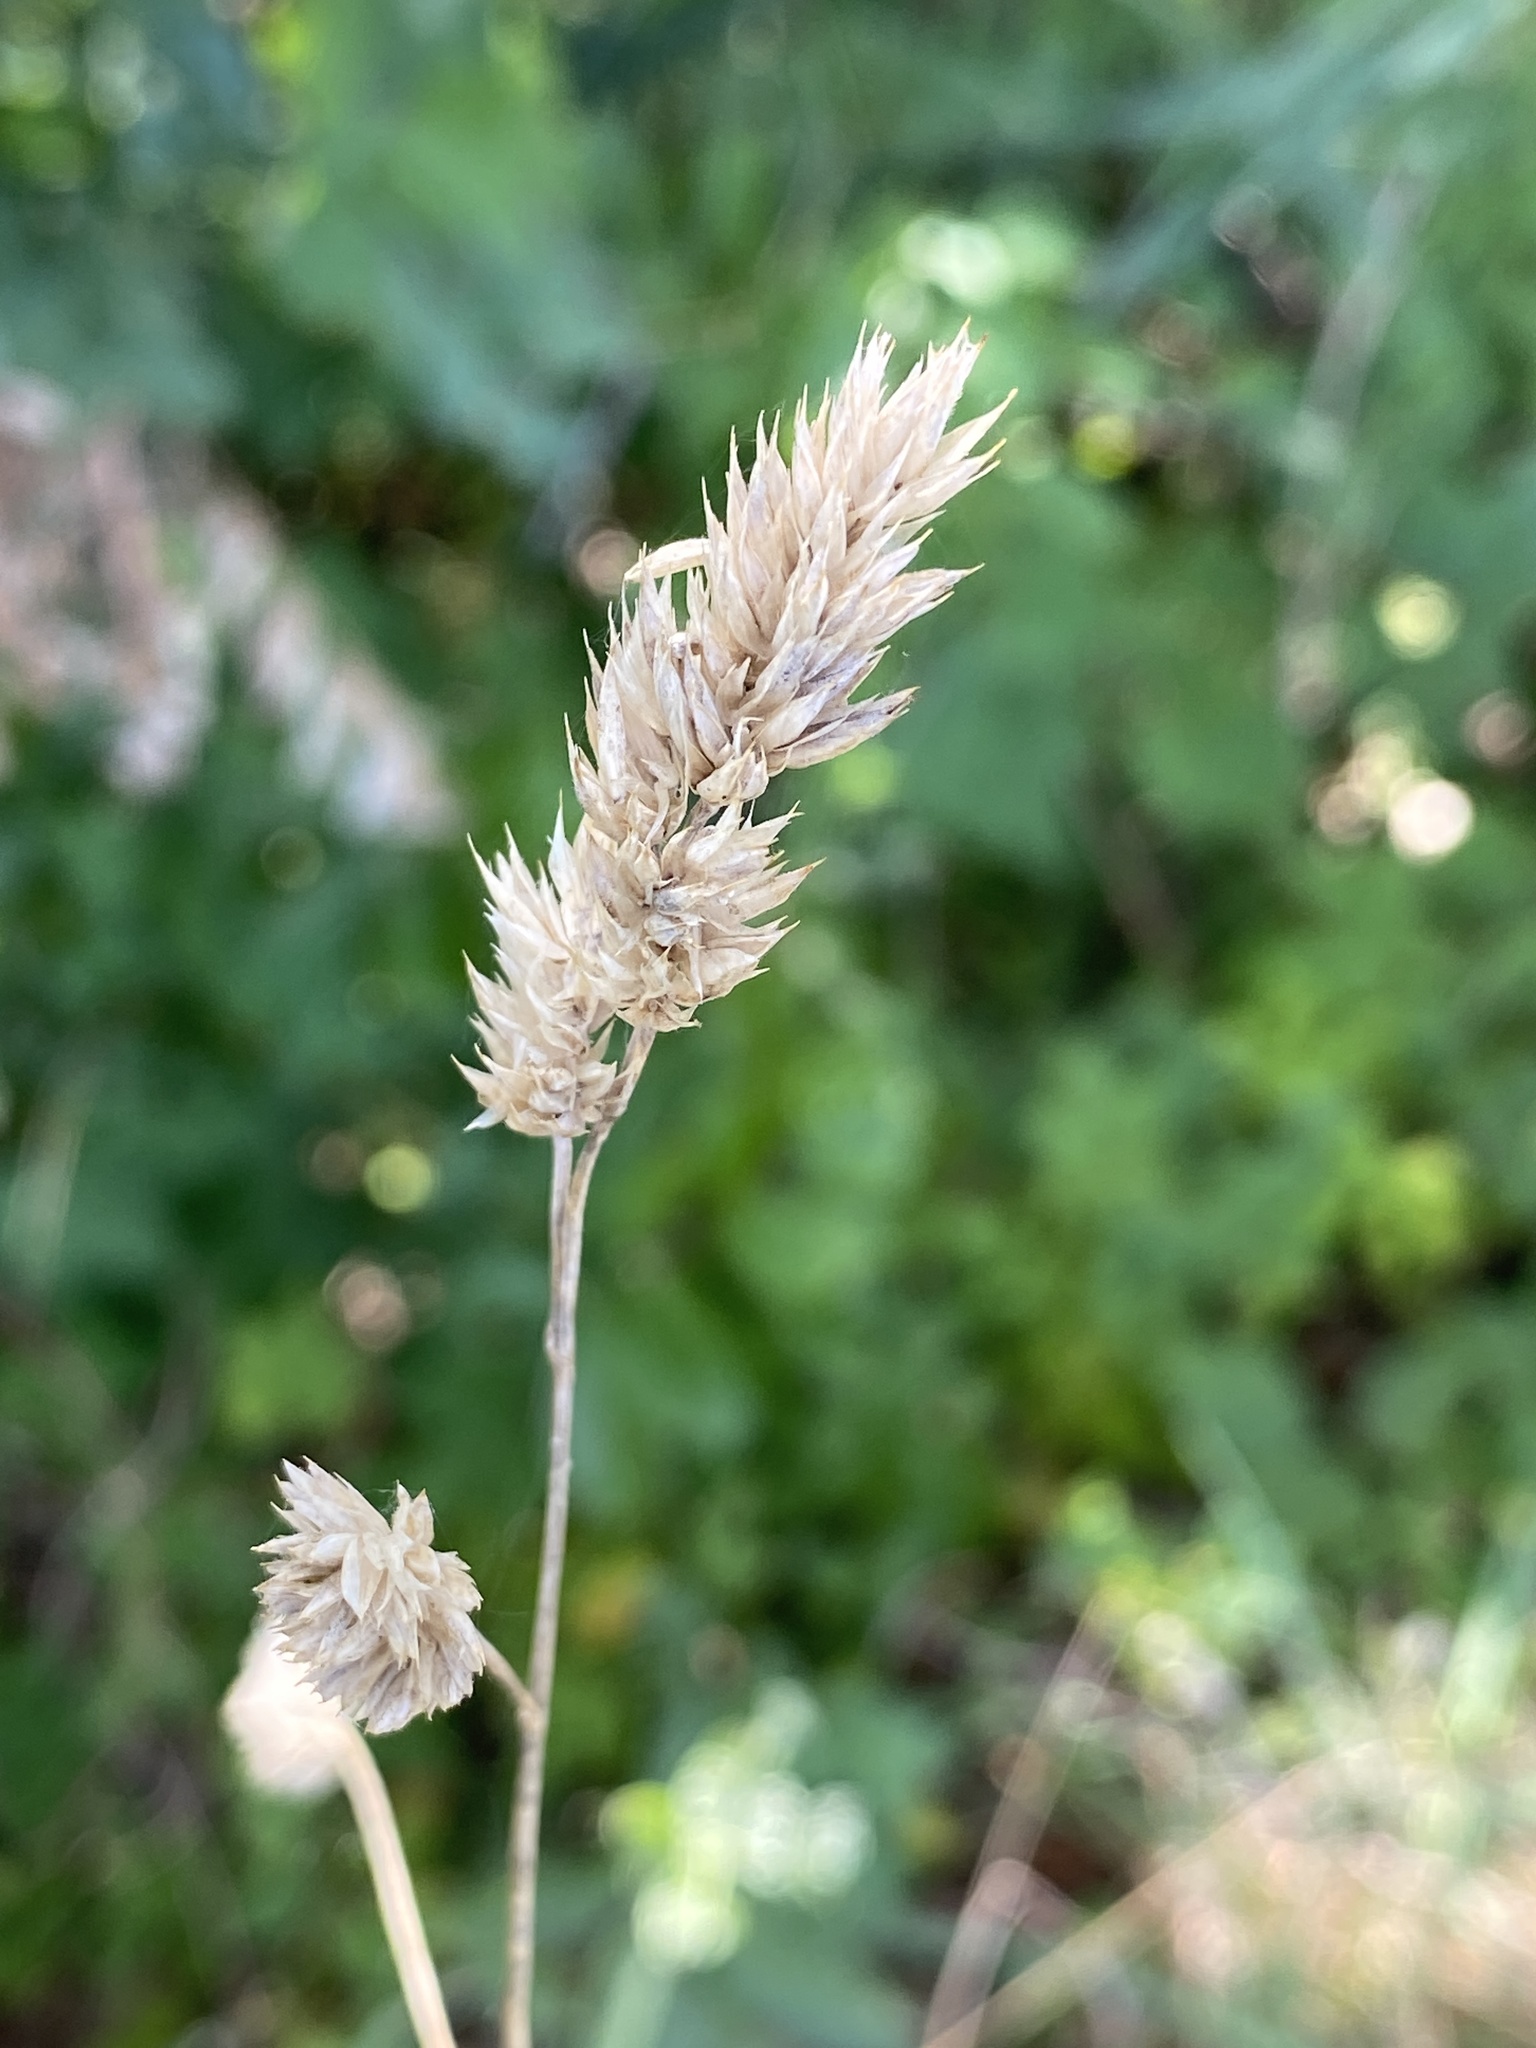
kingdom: Plantae
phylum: Tracheophyta
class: Liliopsida
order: Poales
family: Poaceae
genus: Dactylis
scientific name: Dactylis glomerata
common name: Orchardgrass
